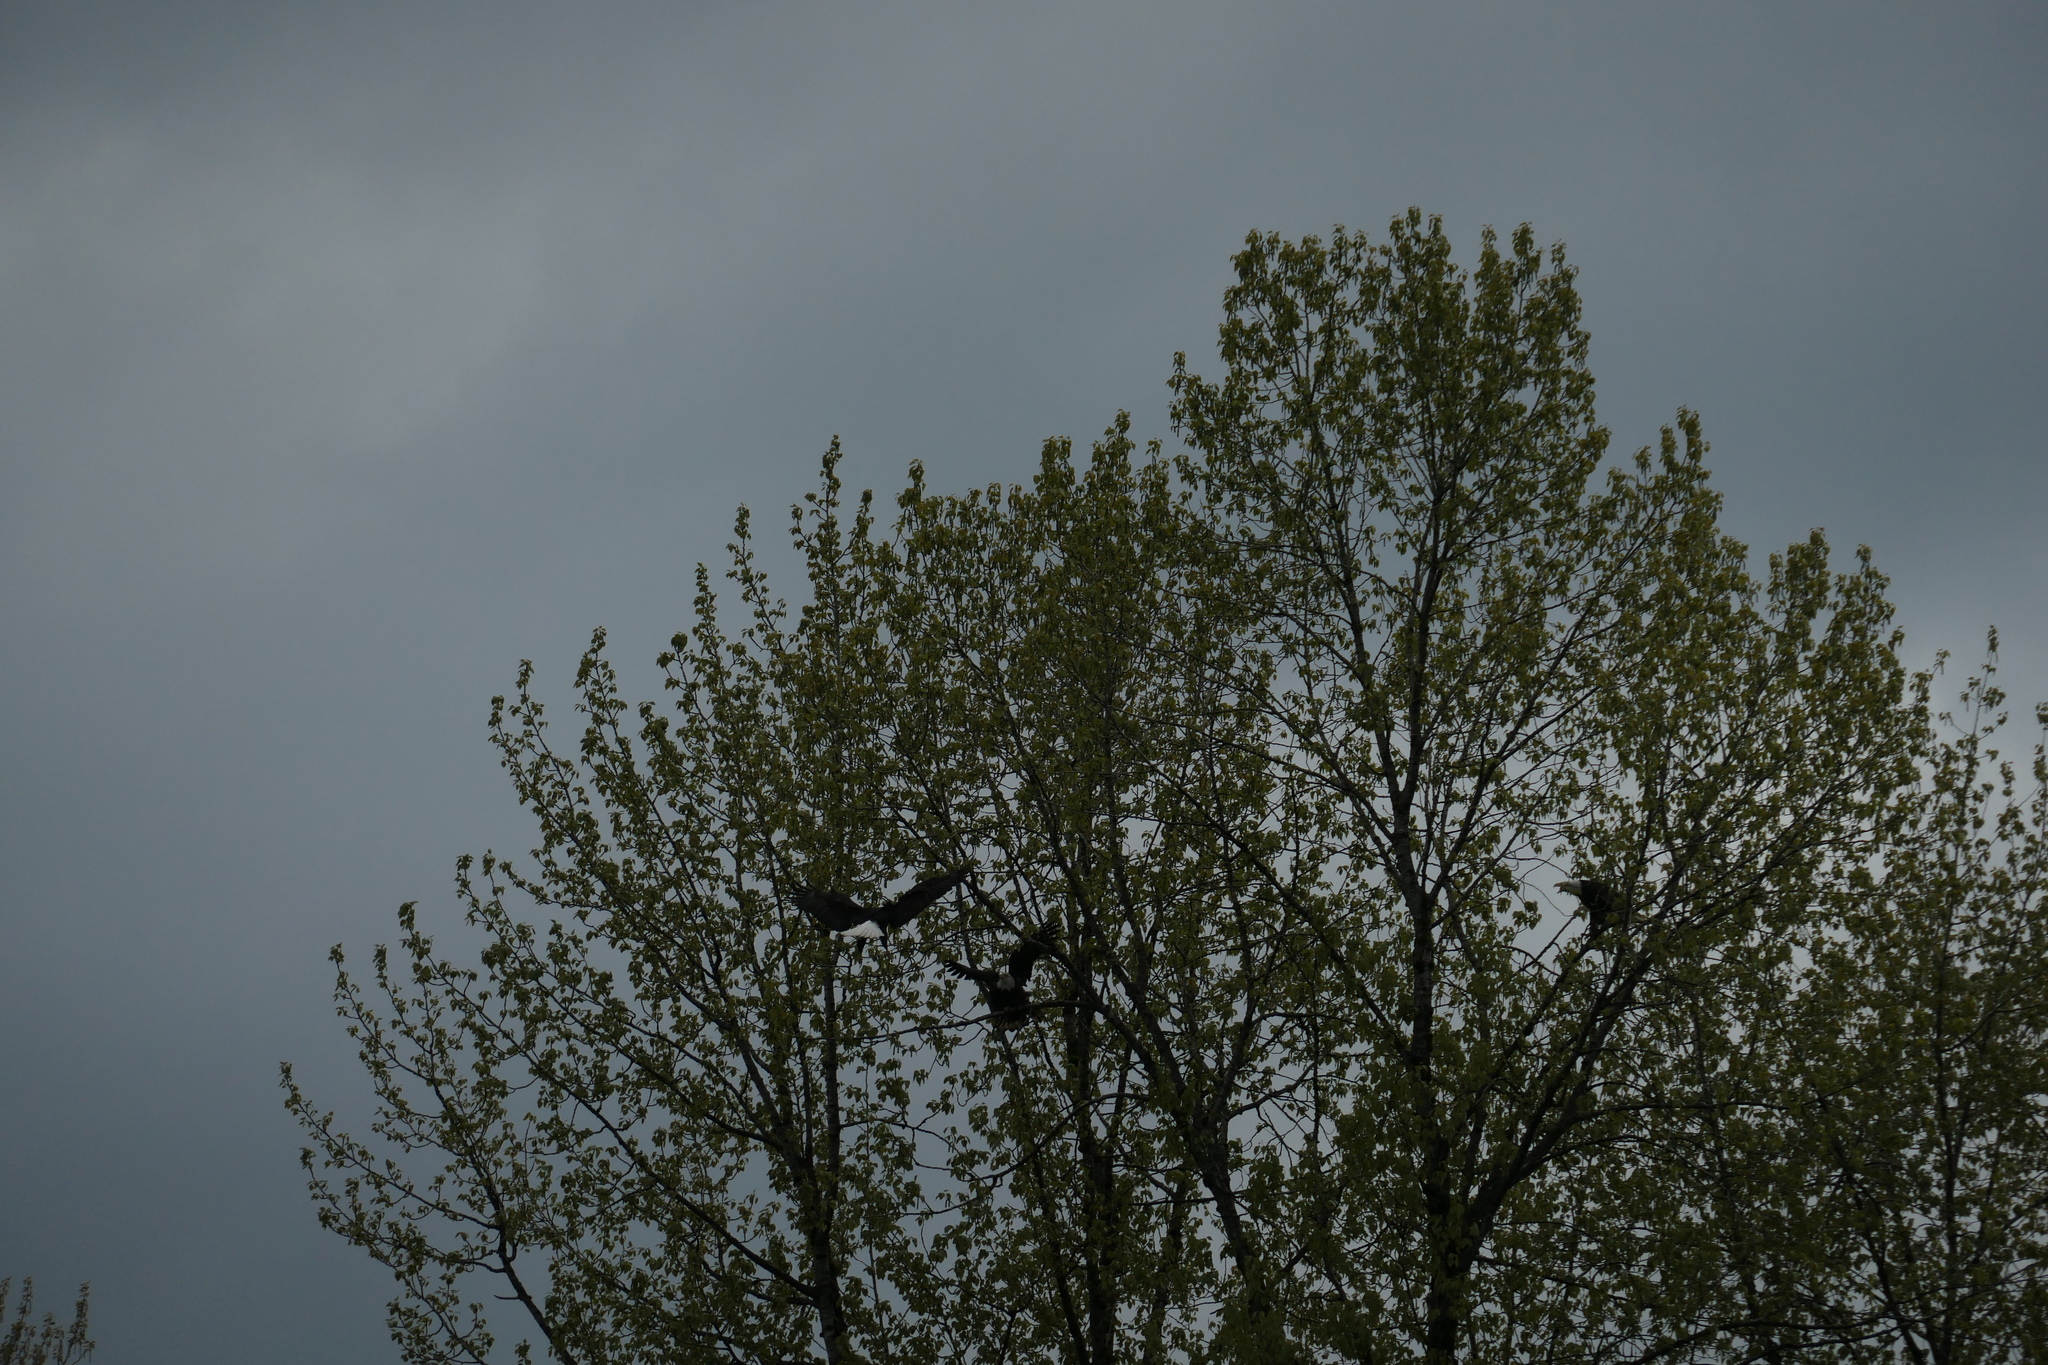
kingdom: Animalia
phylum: Chordata
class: Aves
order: Accipitriformes
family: Accipitridae
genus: Haliaeetus
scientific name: Haliaeetus leucocephalus
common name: Bald eagle
